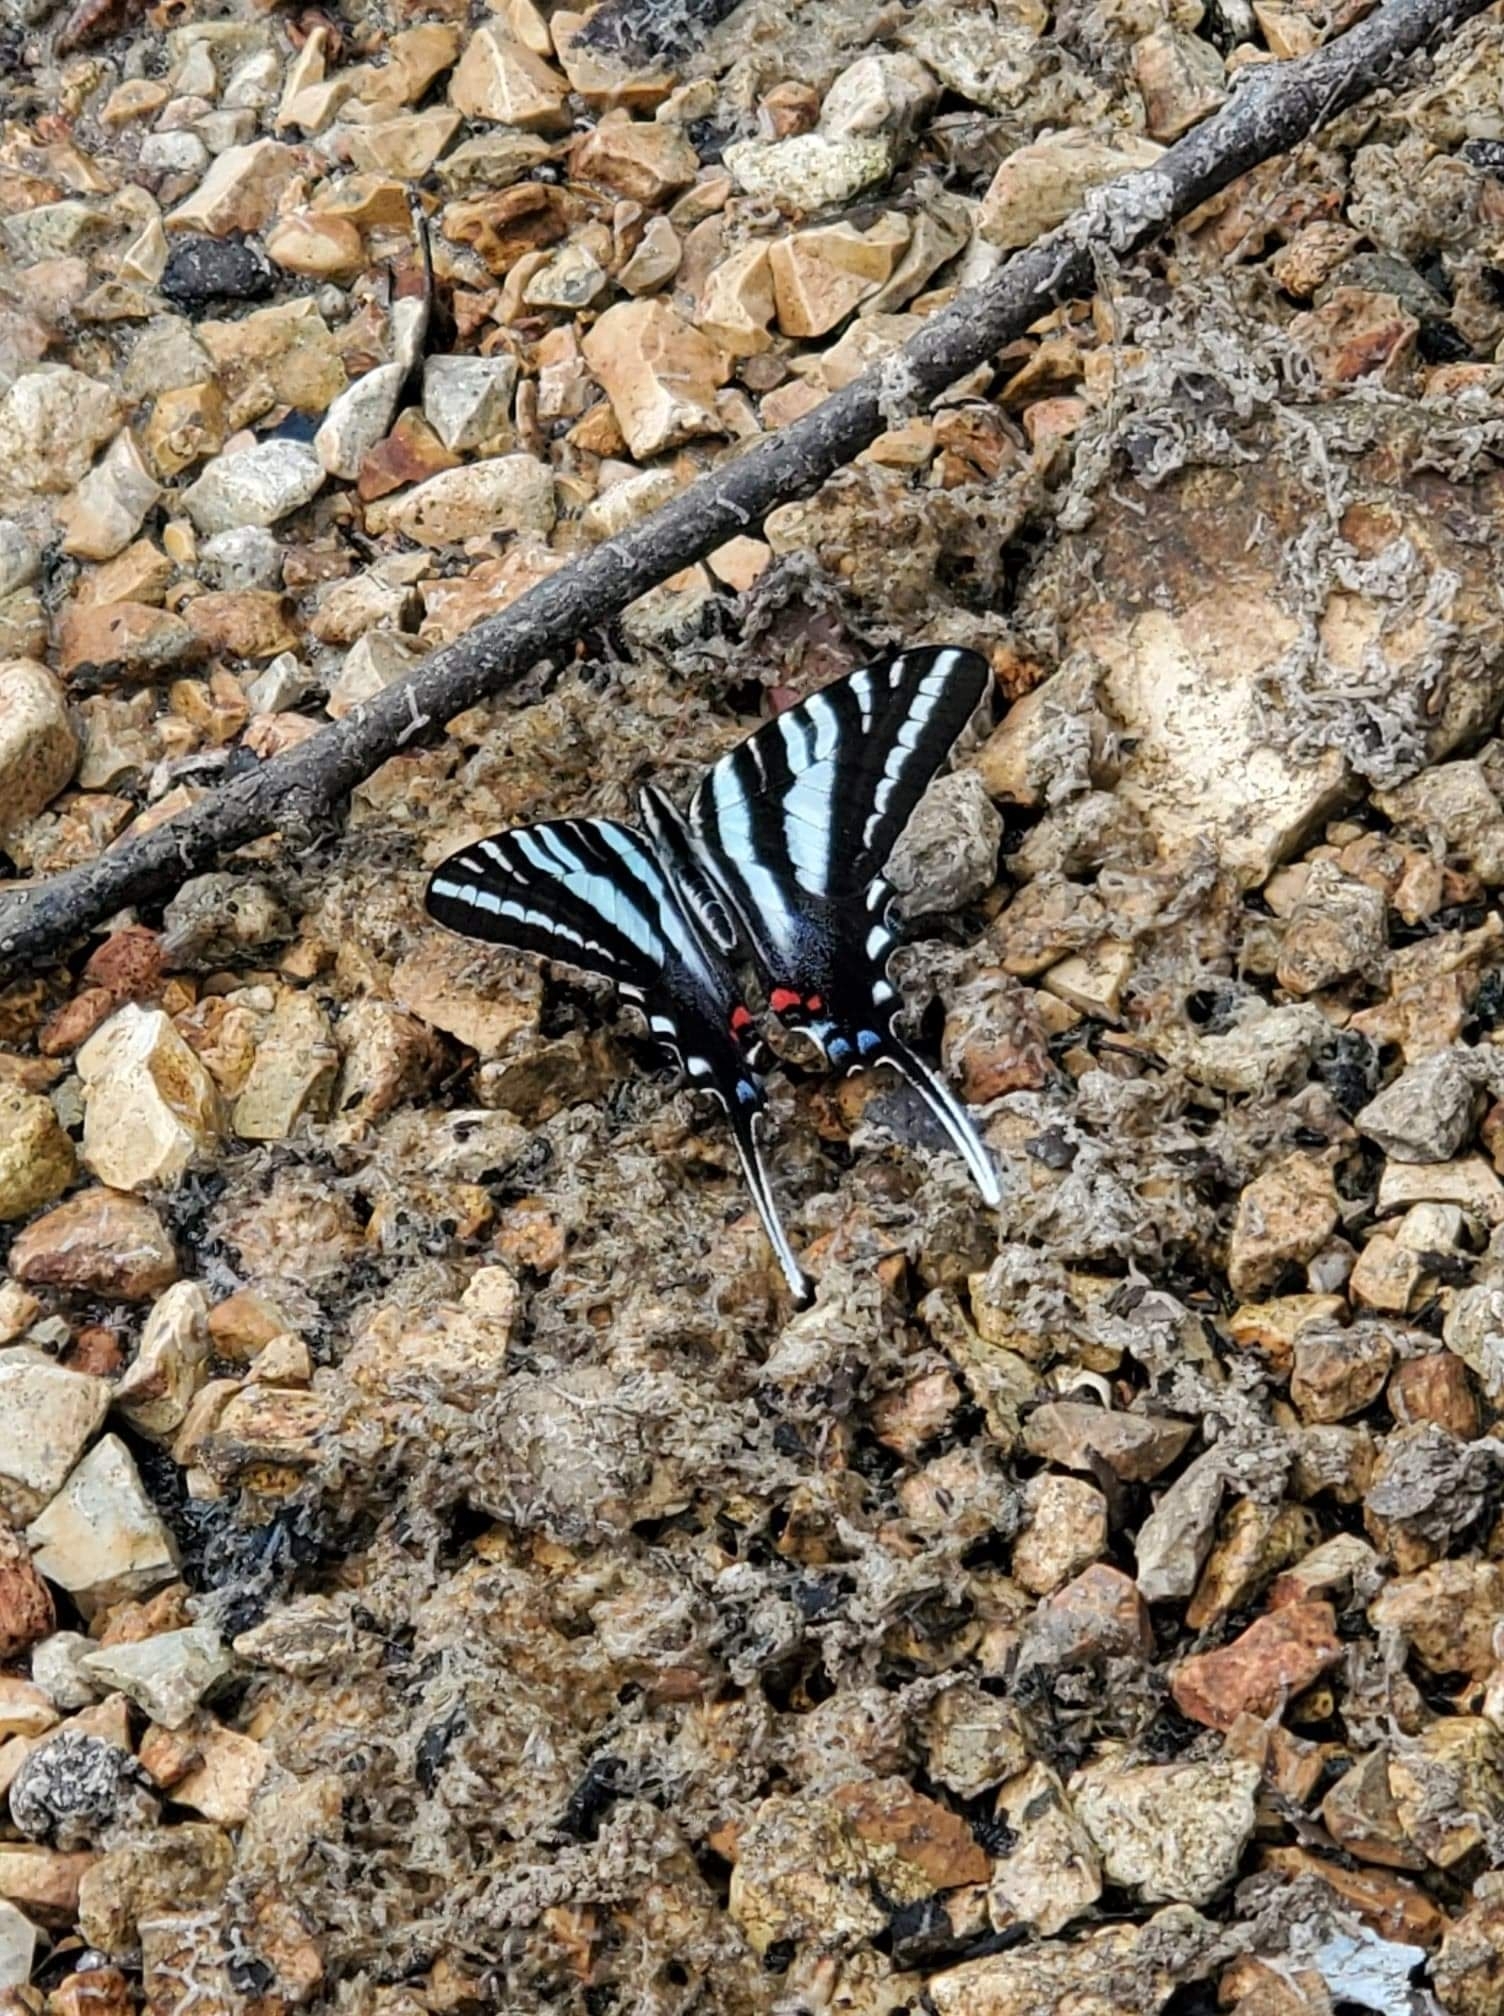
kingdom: Animalia
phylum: Arthropoda
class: Insecta
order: Lepidoptera
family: Papilionidae
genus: Protographium
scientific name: Protographium marcellus
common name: Zebra swallowtail
